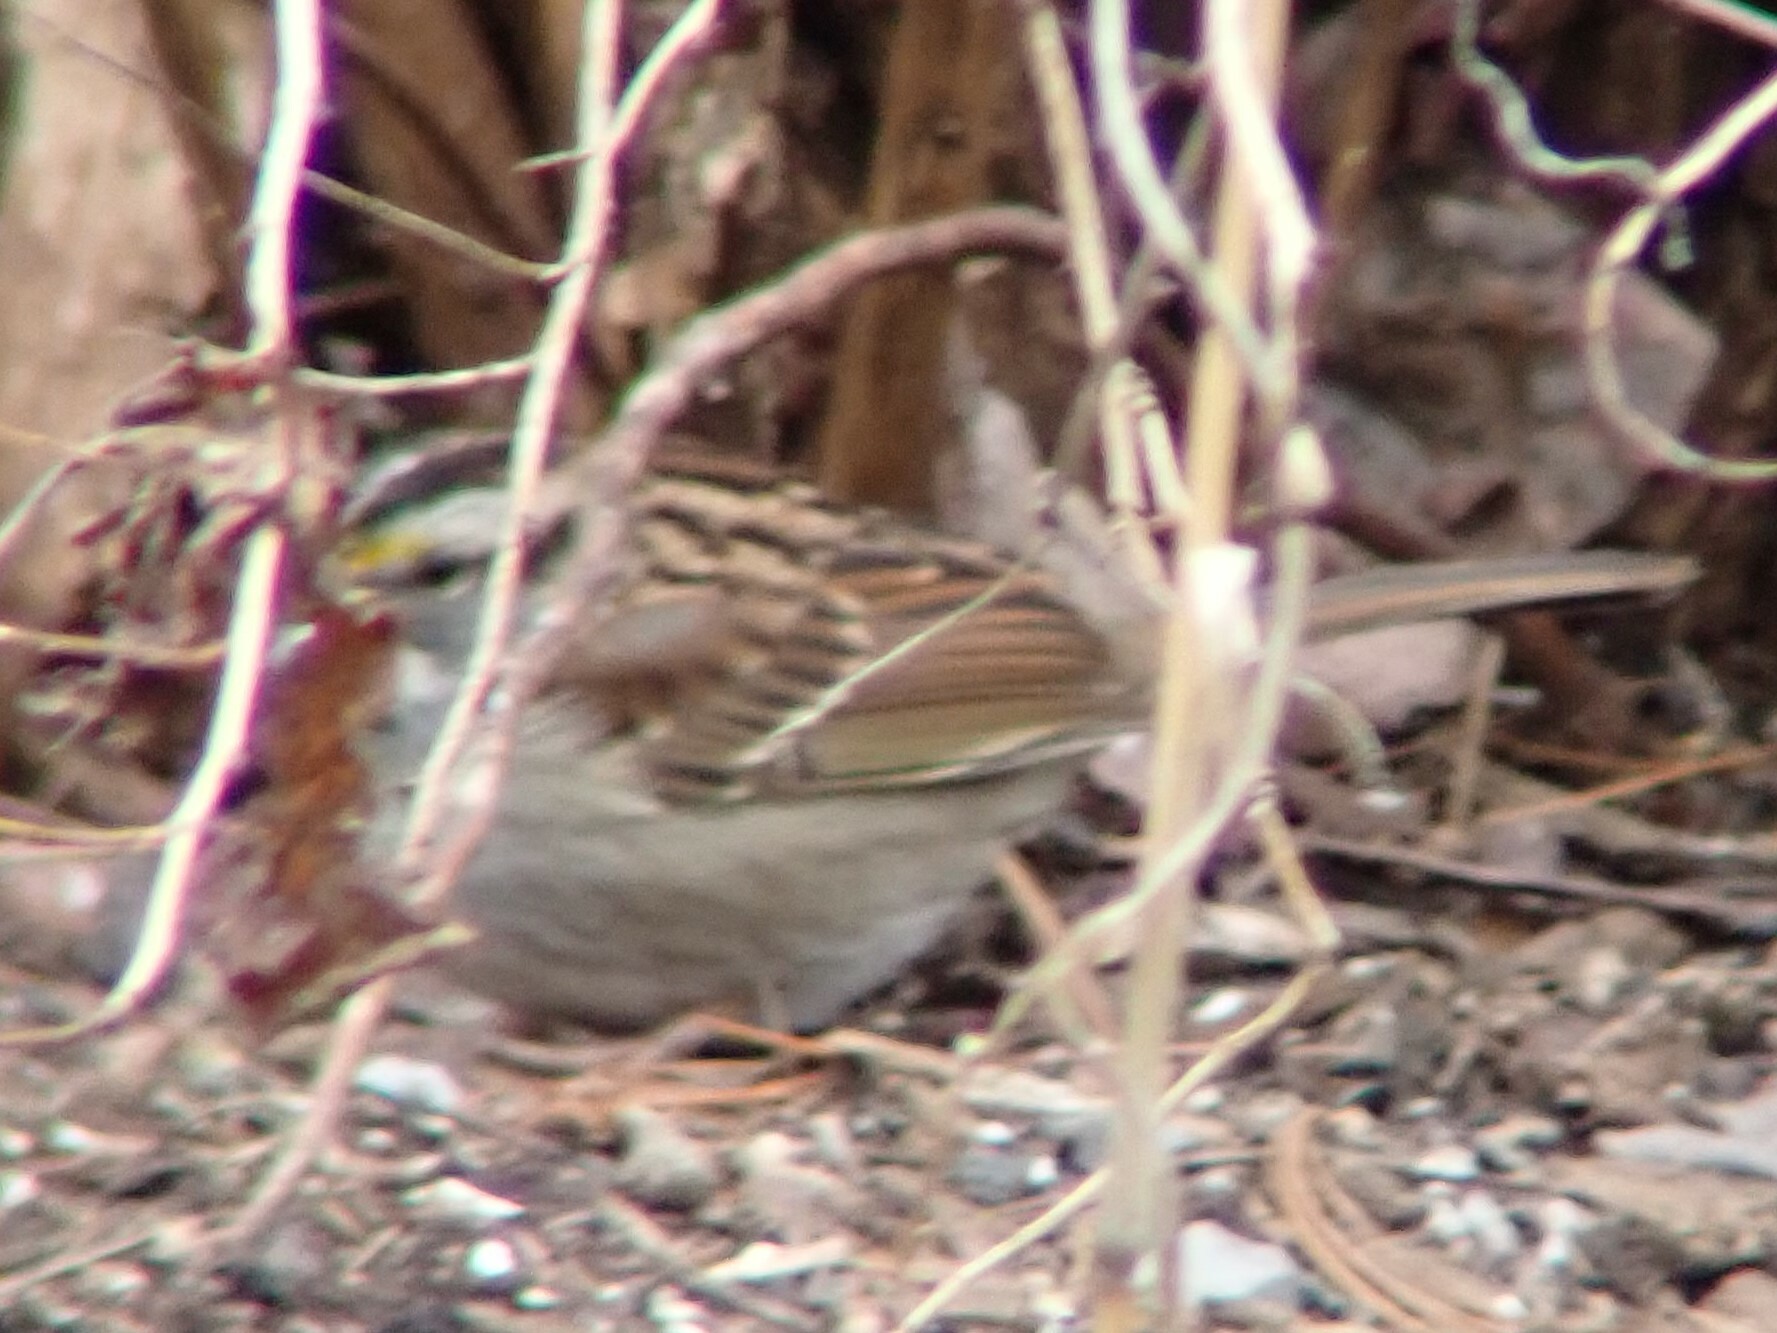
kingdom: Animalia
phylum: Chordata
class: Aves
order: Passeriformes
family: Passerellidae
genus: Zonotrichia
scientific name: Zonotrichia albicollis
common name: White-throated sparrow
